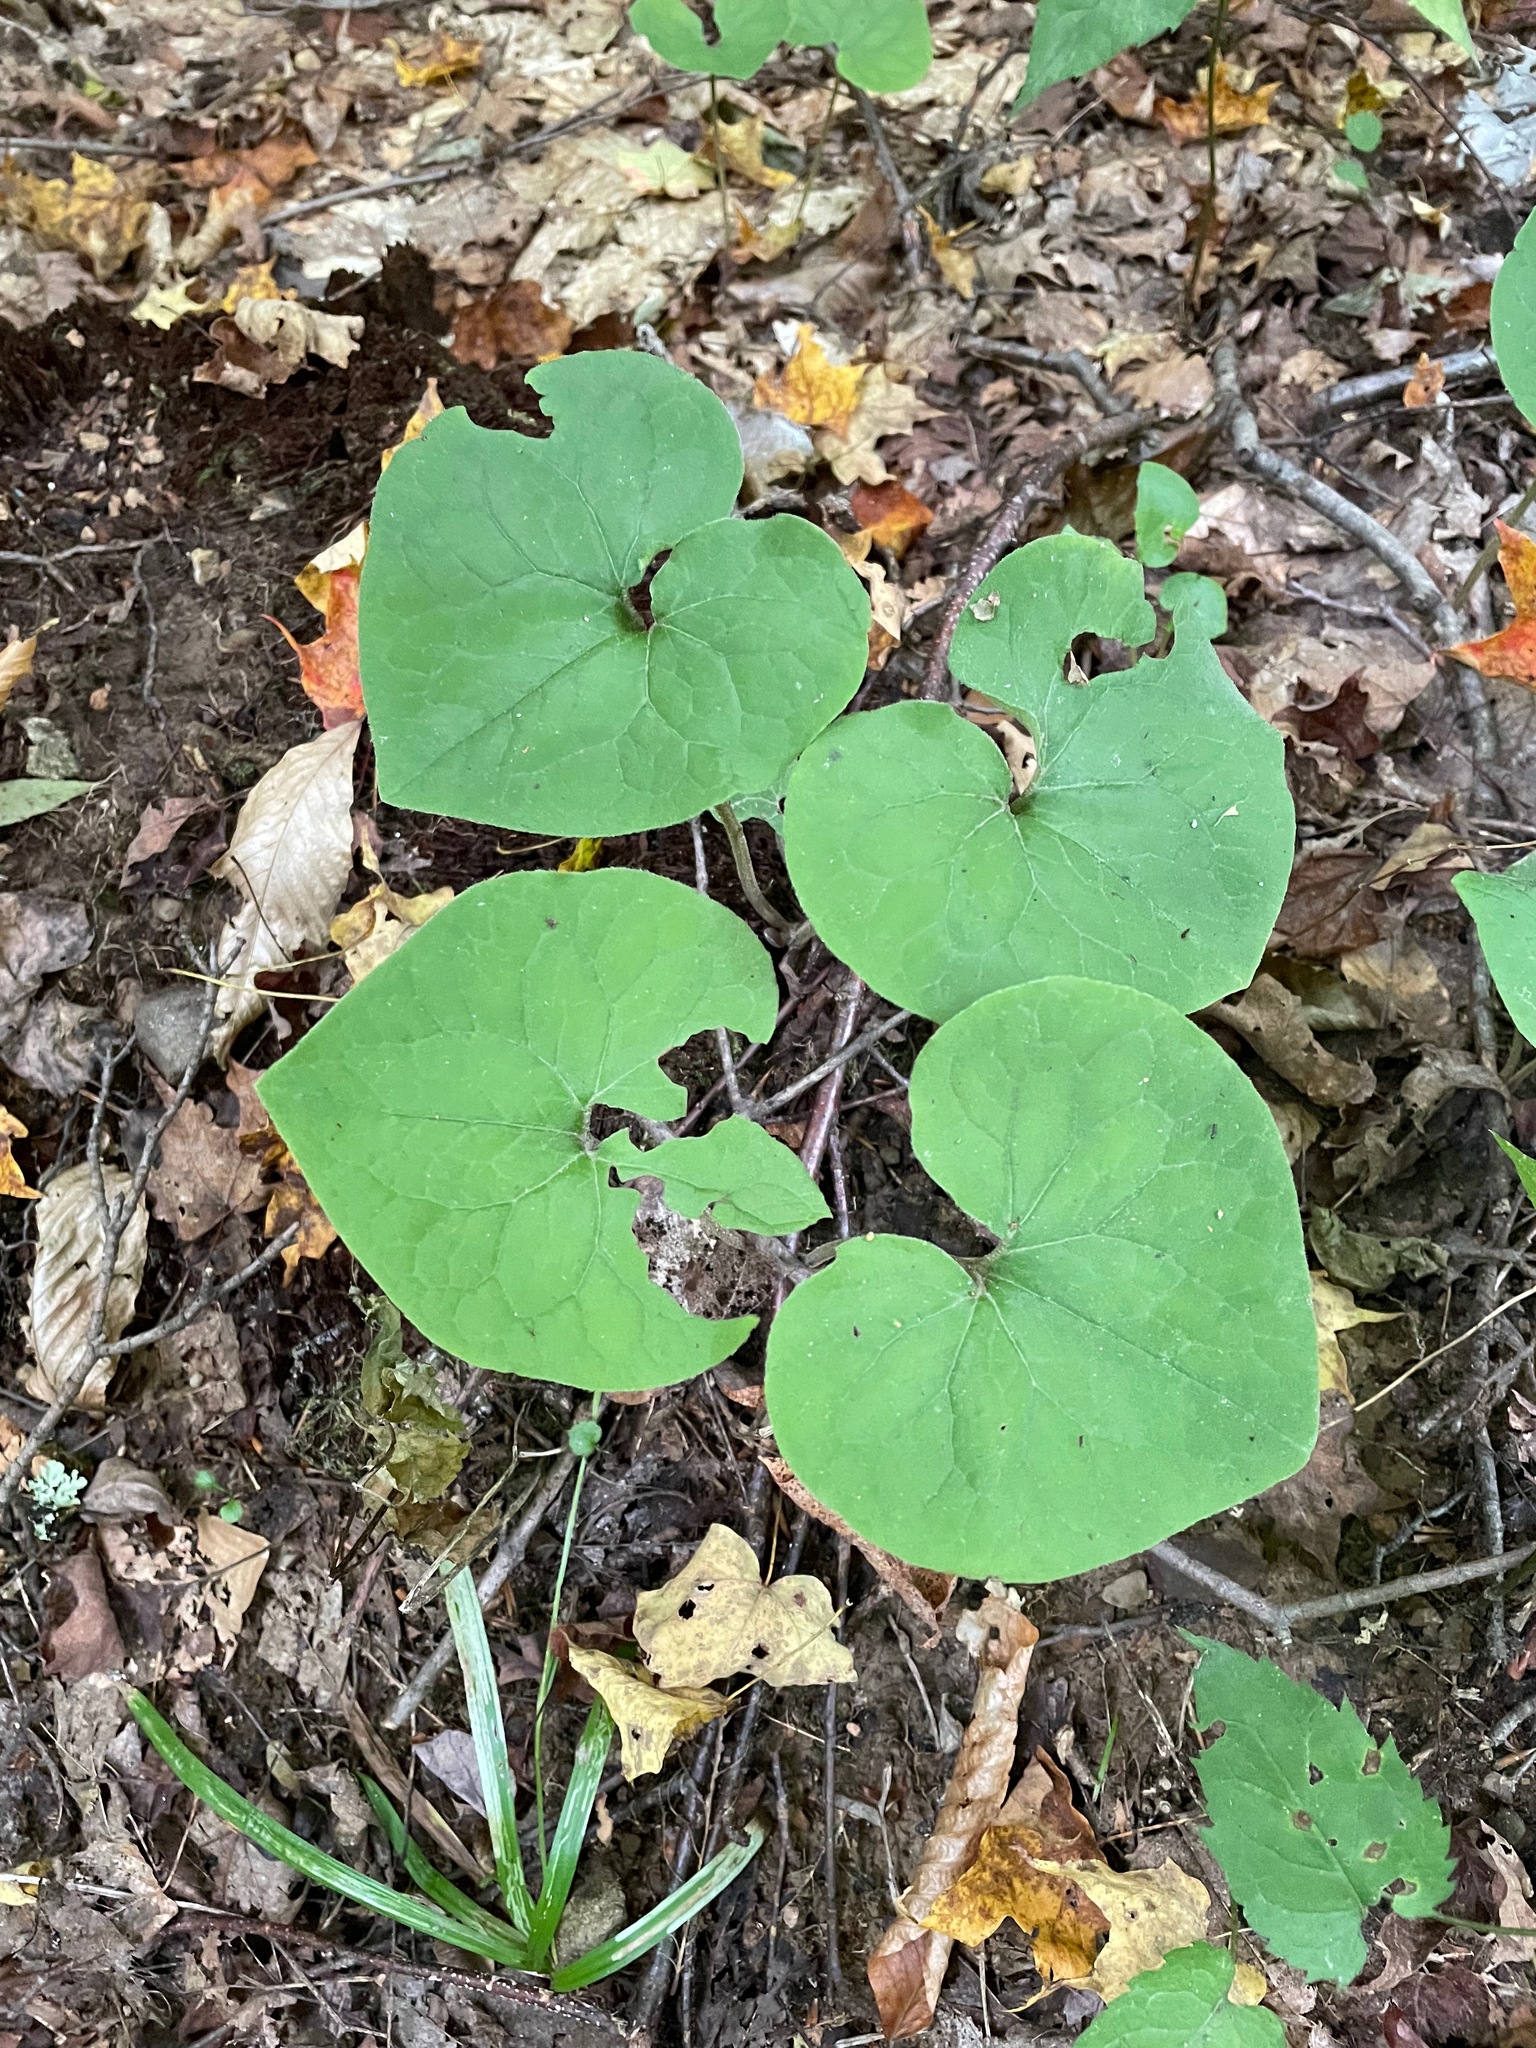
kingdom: Plantae
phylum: Tracheophyta
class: Magnoliopsida
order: Piperales
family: Aristolochiaceae
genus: Asarum
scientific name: Asarum canadense
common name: Wild ginger
